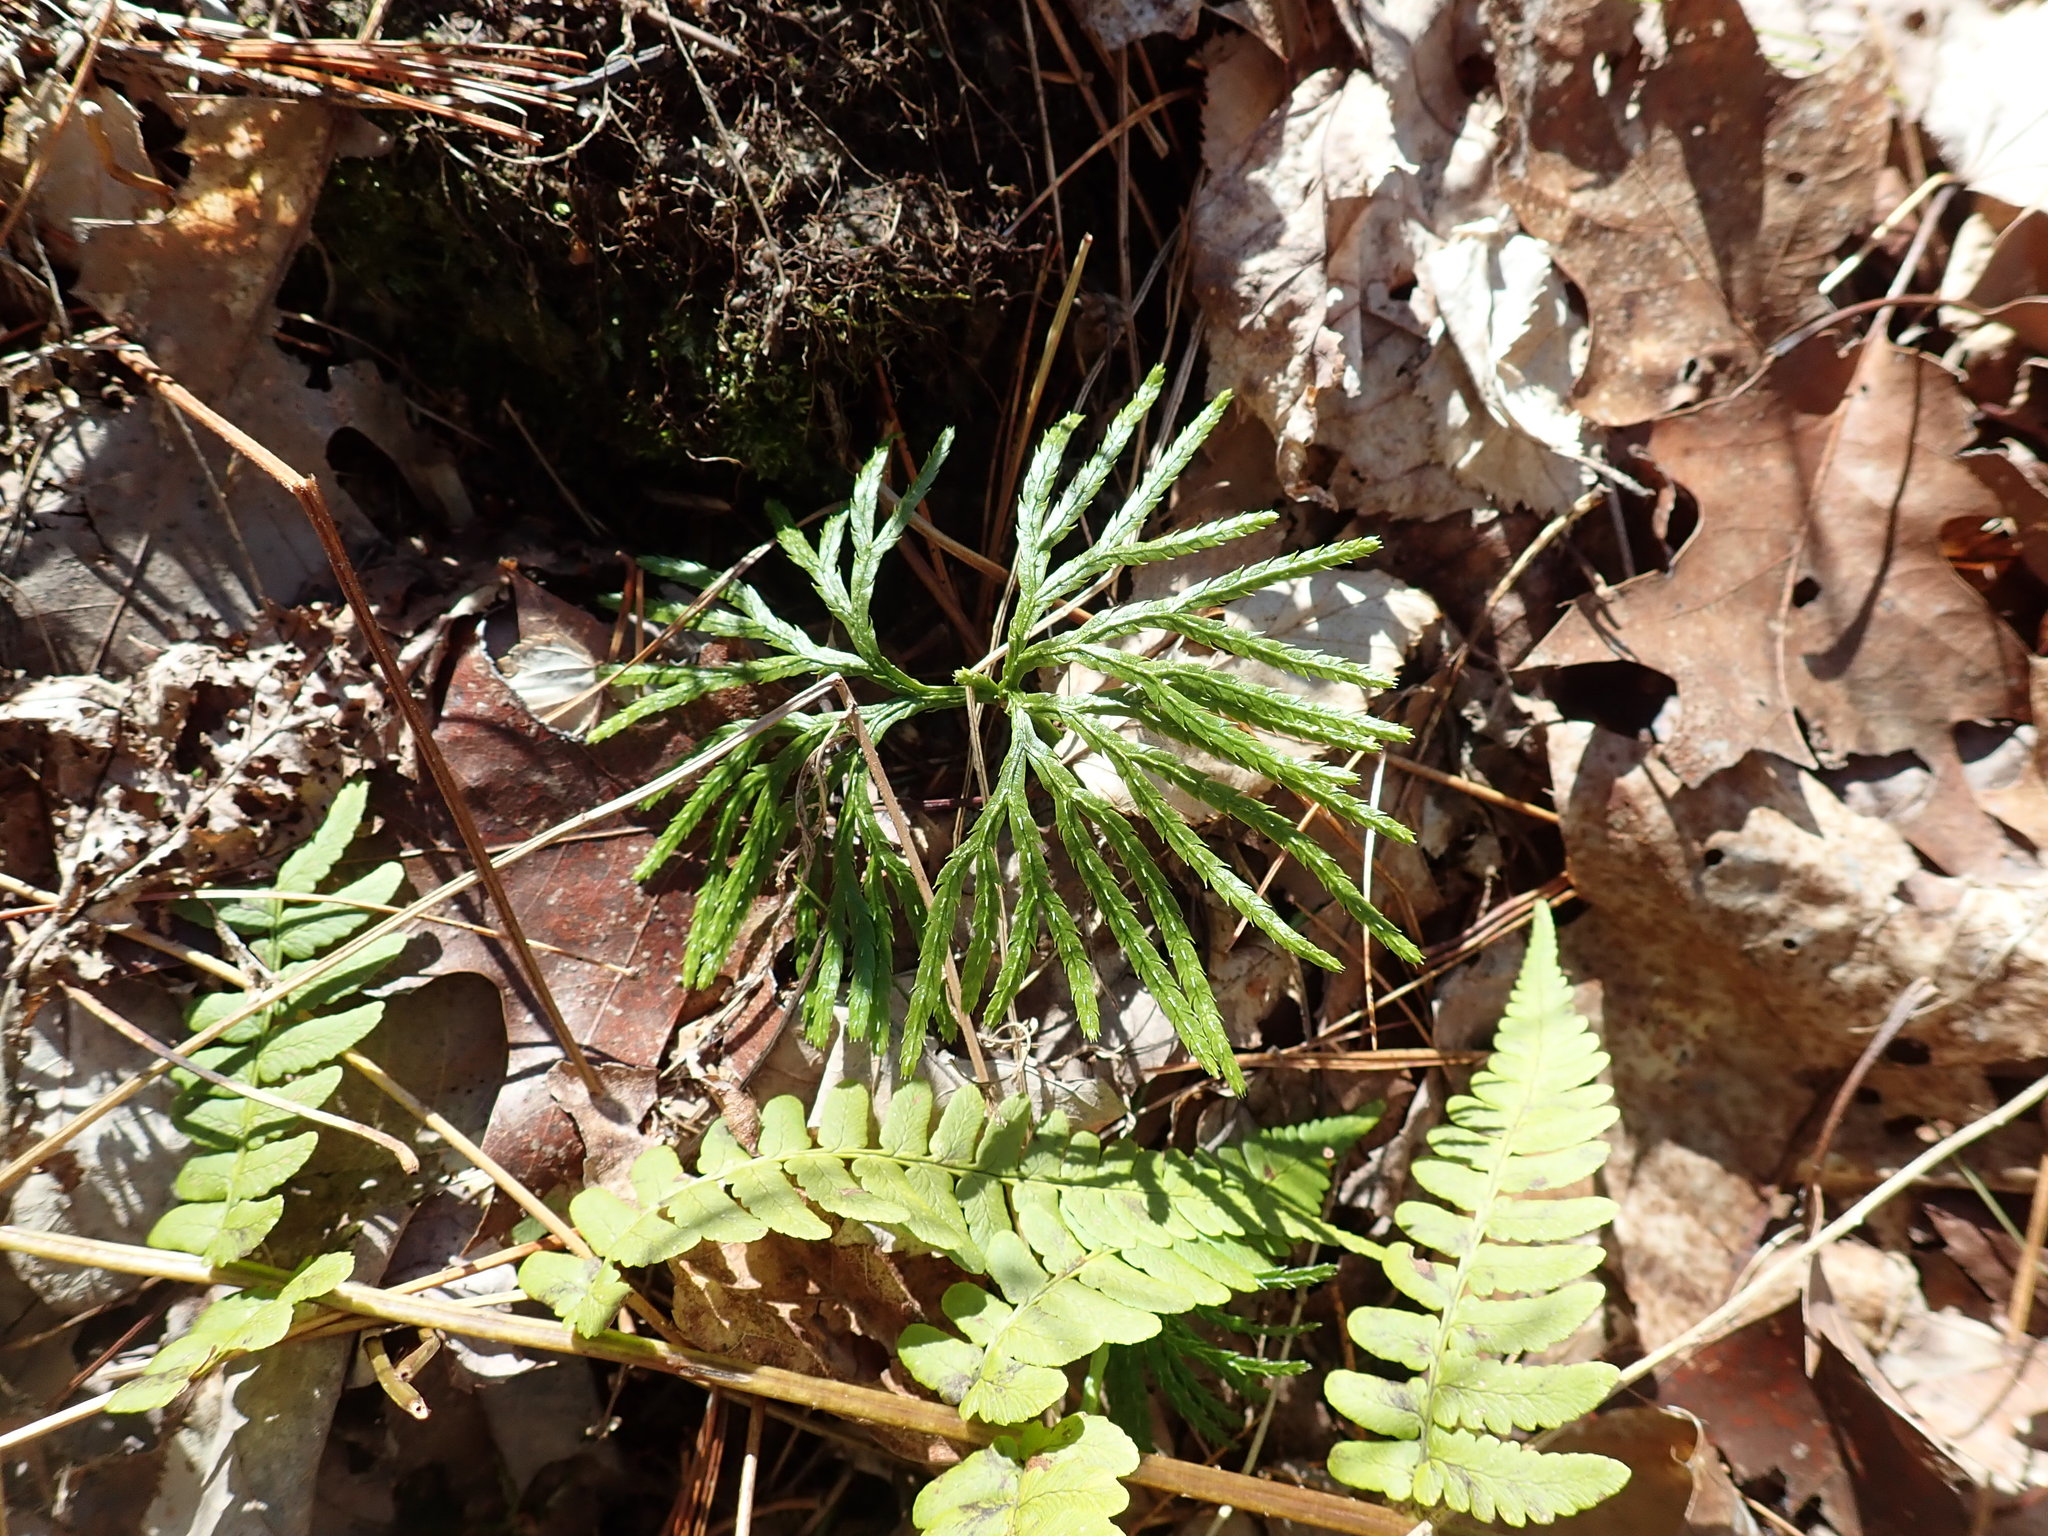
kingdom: Plantae
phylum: Tracheophyta
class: Lycopodiopsida
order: Lycopodiales
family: Lycopodiaceae
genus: Diphasiastrum
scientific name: Diphasiastrum digitatum
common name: Southern running-pine
